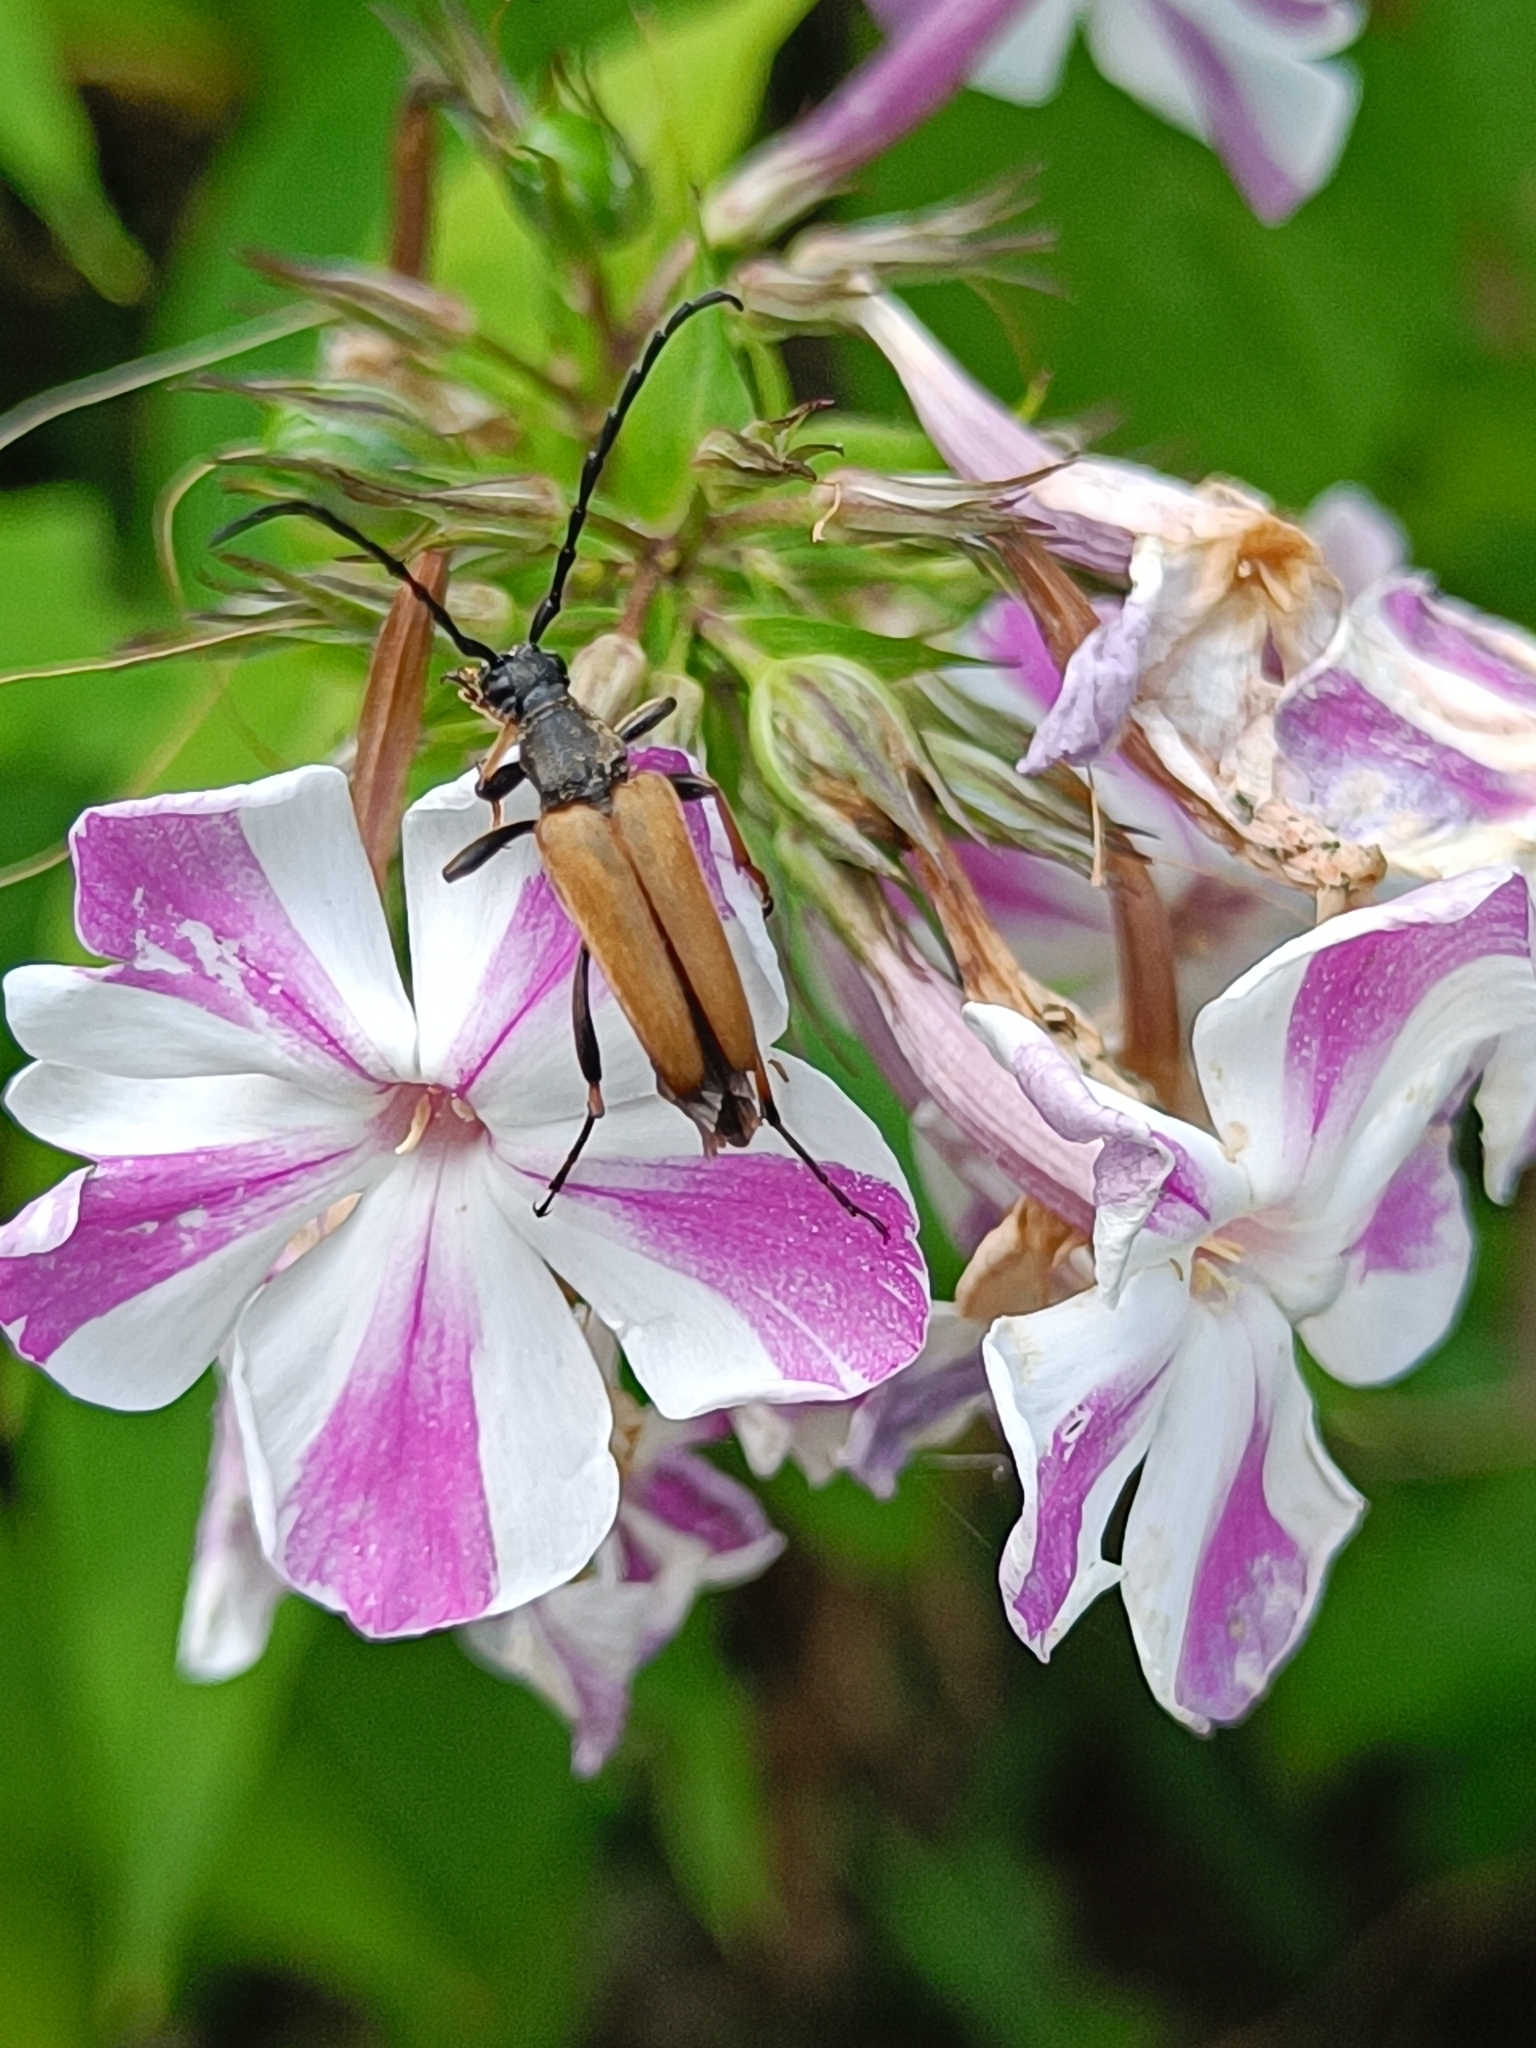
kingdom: Animalia
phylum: Arthropoda
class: Insecta
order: Coleoptera
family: Cerambycidae
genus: Stictoleptura
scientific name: Stictoleptura rubra
